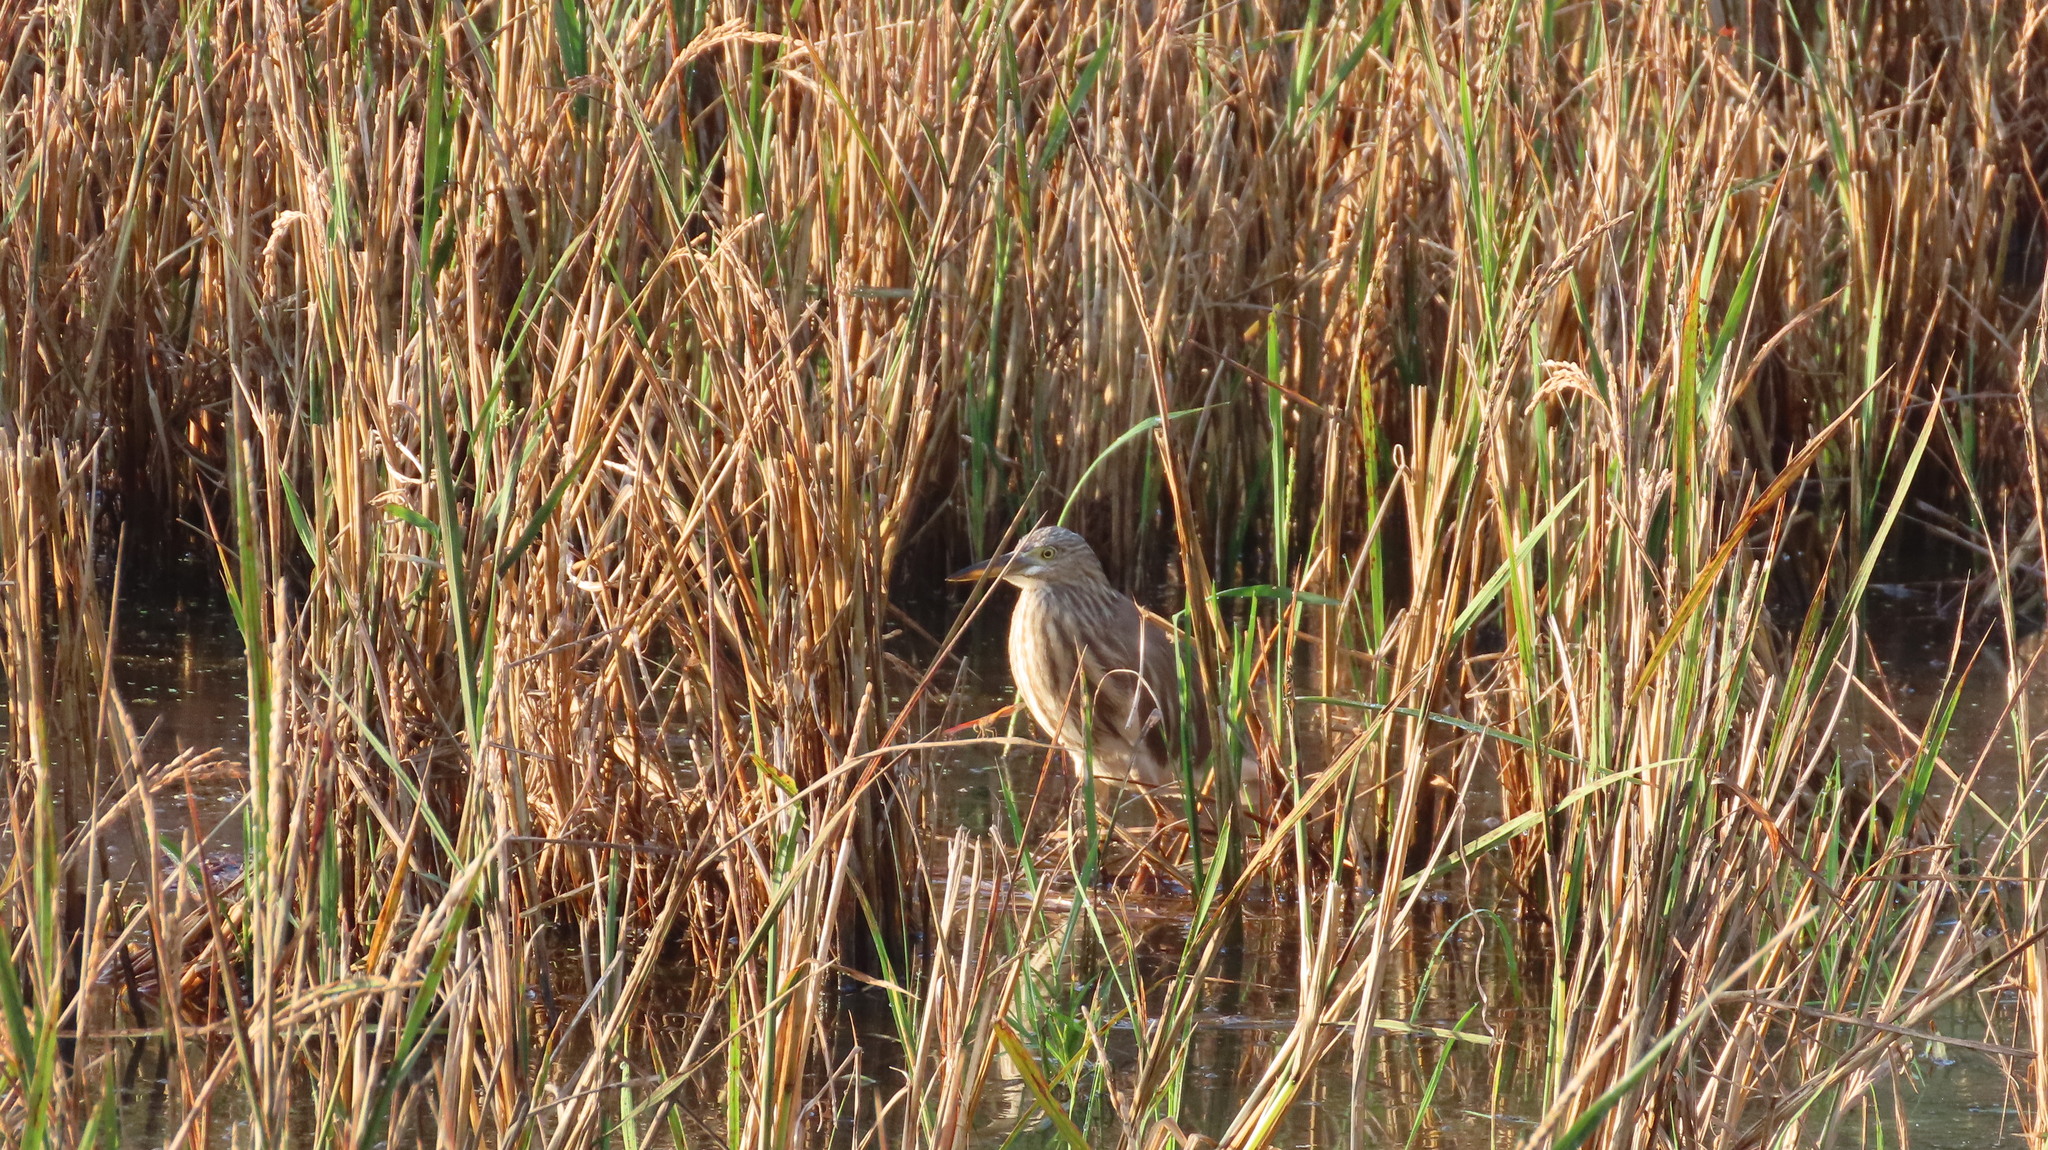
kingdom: Animalia
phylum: Chordata
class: Aves
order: Pelecaniformes
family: Ardeidae
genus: Ardeola
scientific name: Ardeola grayii
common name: Indian pond heron
